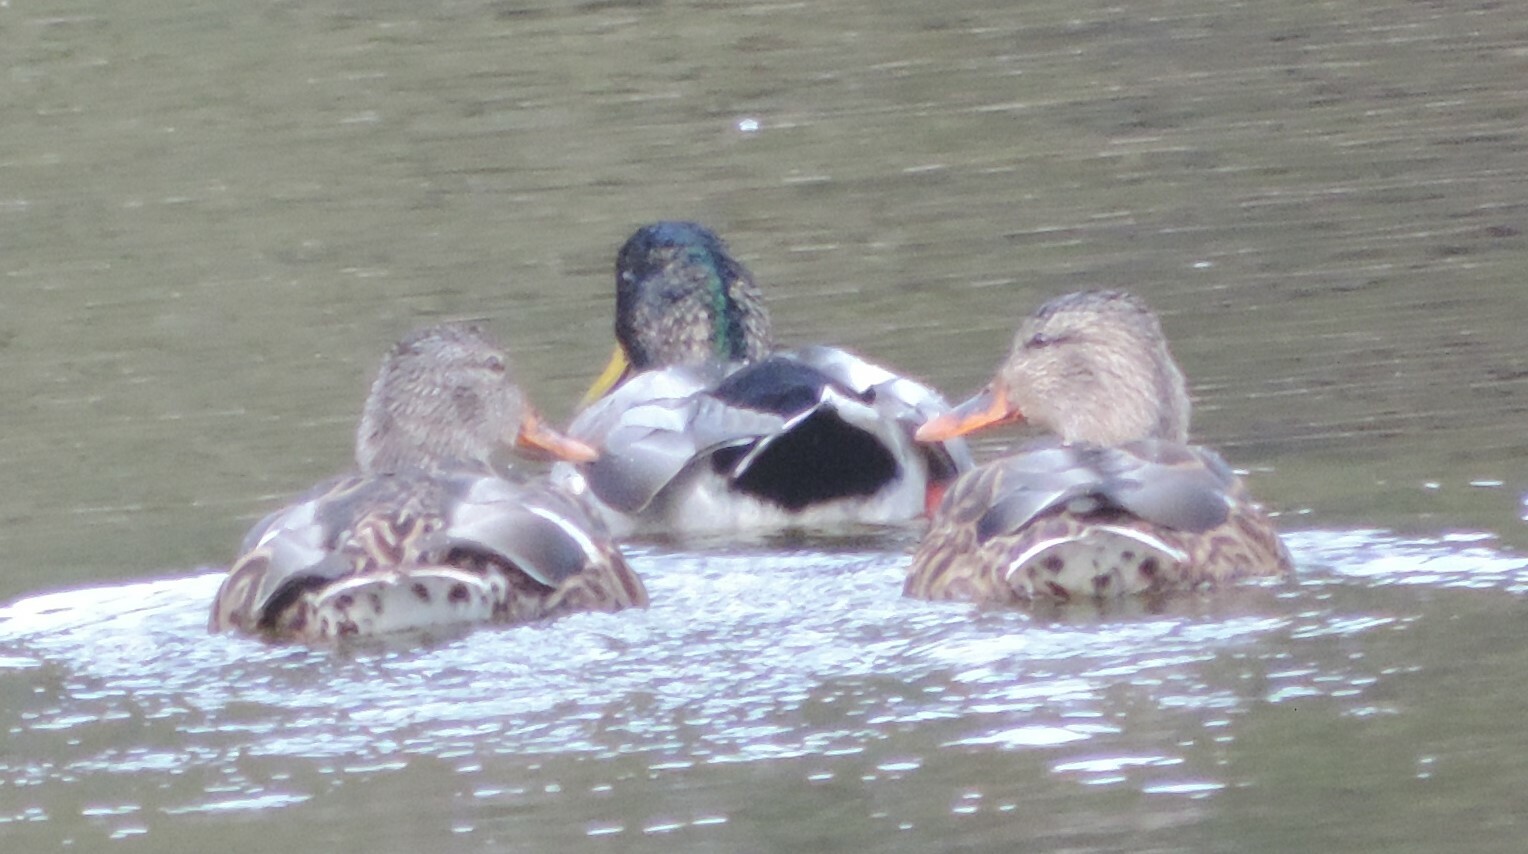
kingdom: Animalia
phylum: Chordata
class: Aves
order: Anseriformes
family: Anatidae
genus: Anas
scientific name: Anas platyrhynchos
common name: Mallard
